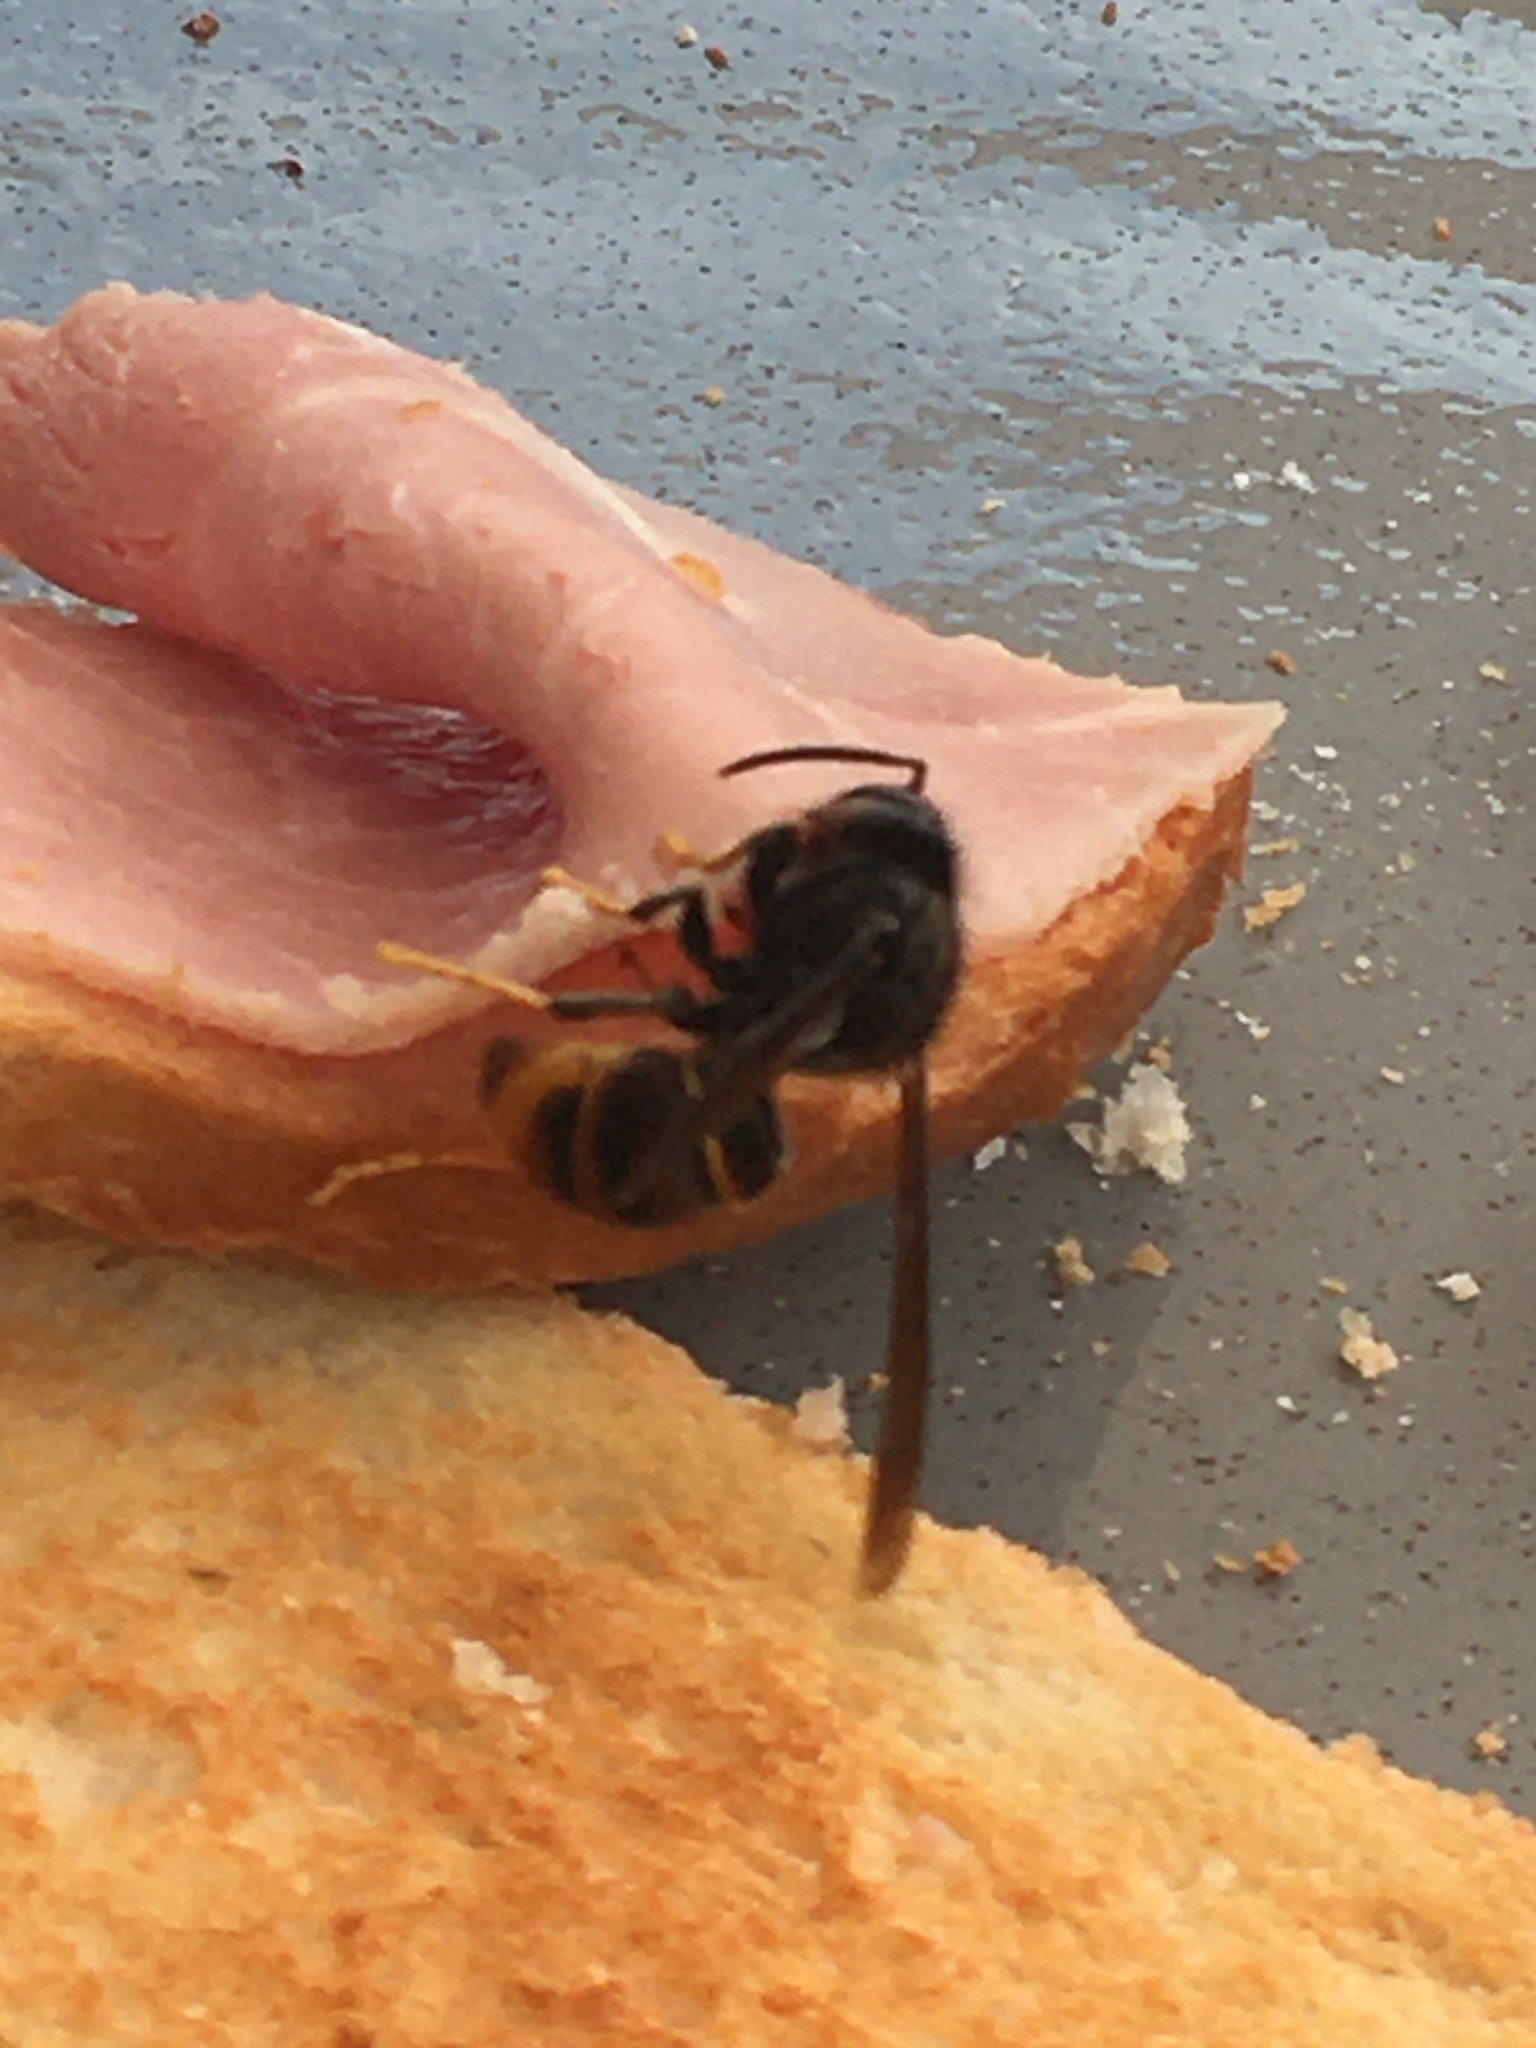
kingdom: Animalia
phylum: Arthropoda
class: Insecta
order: Hymenoptera
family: Vespidae
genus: Vespa
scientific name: Vespa velutina
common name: Asian hornet
